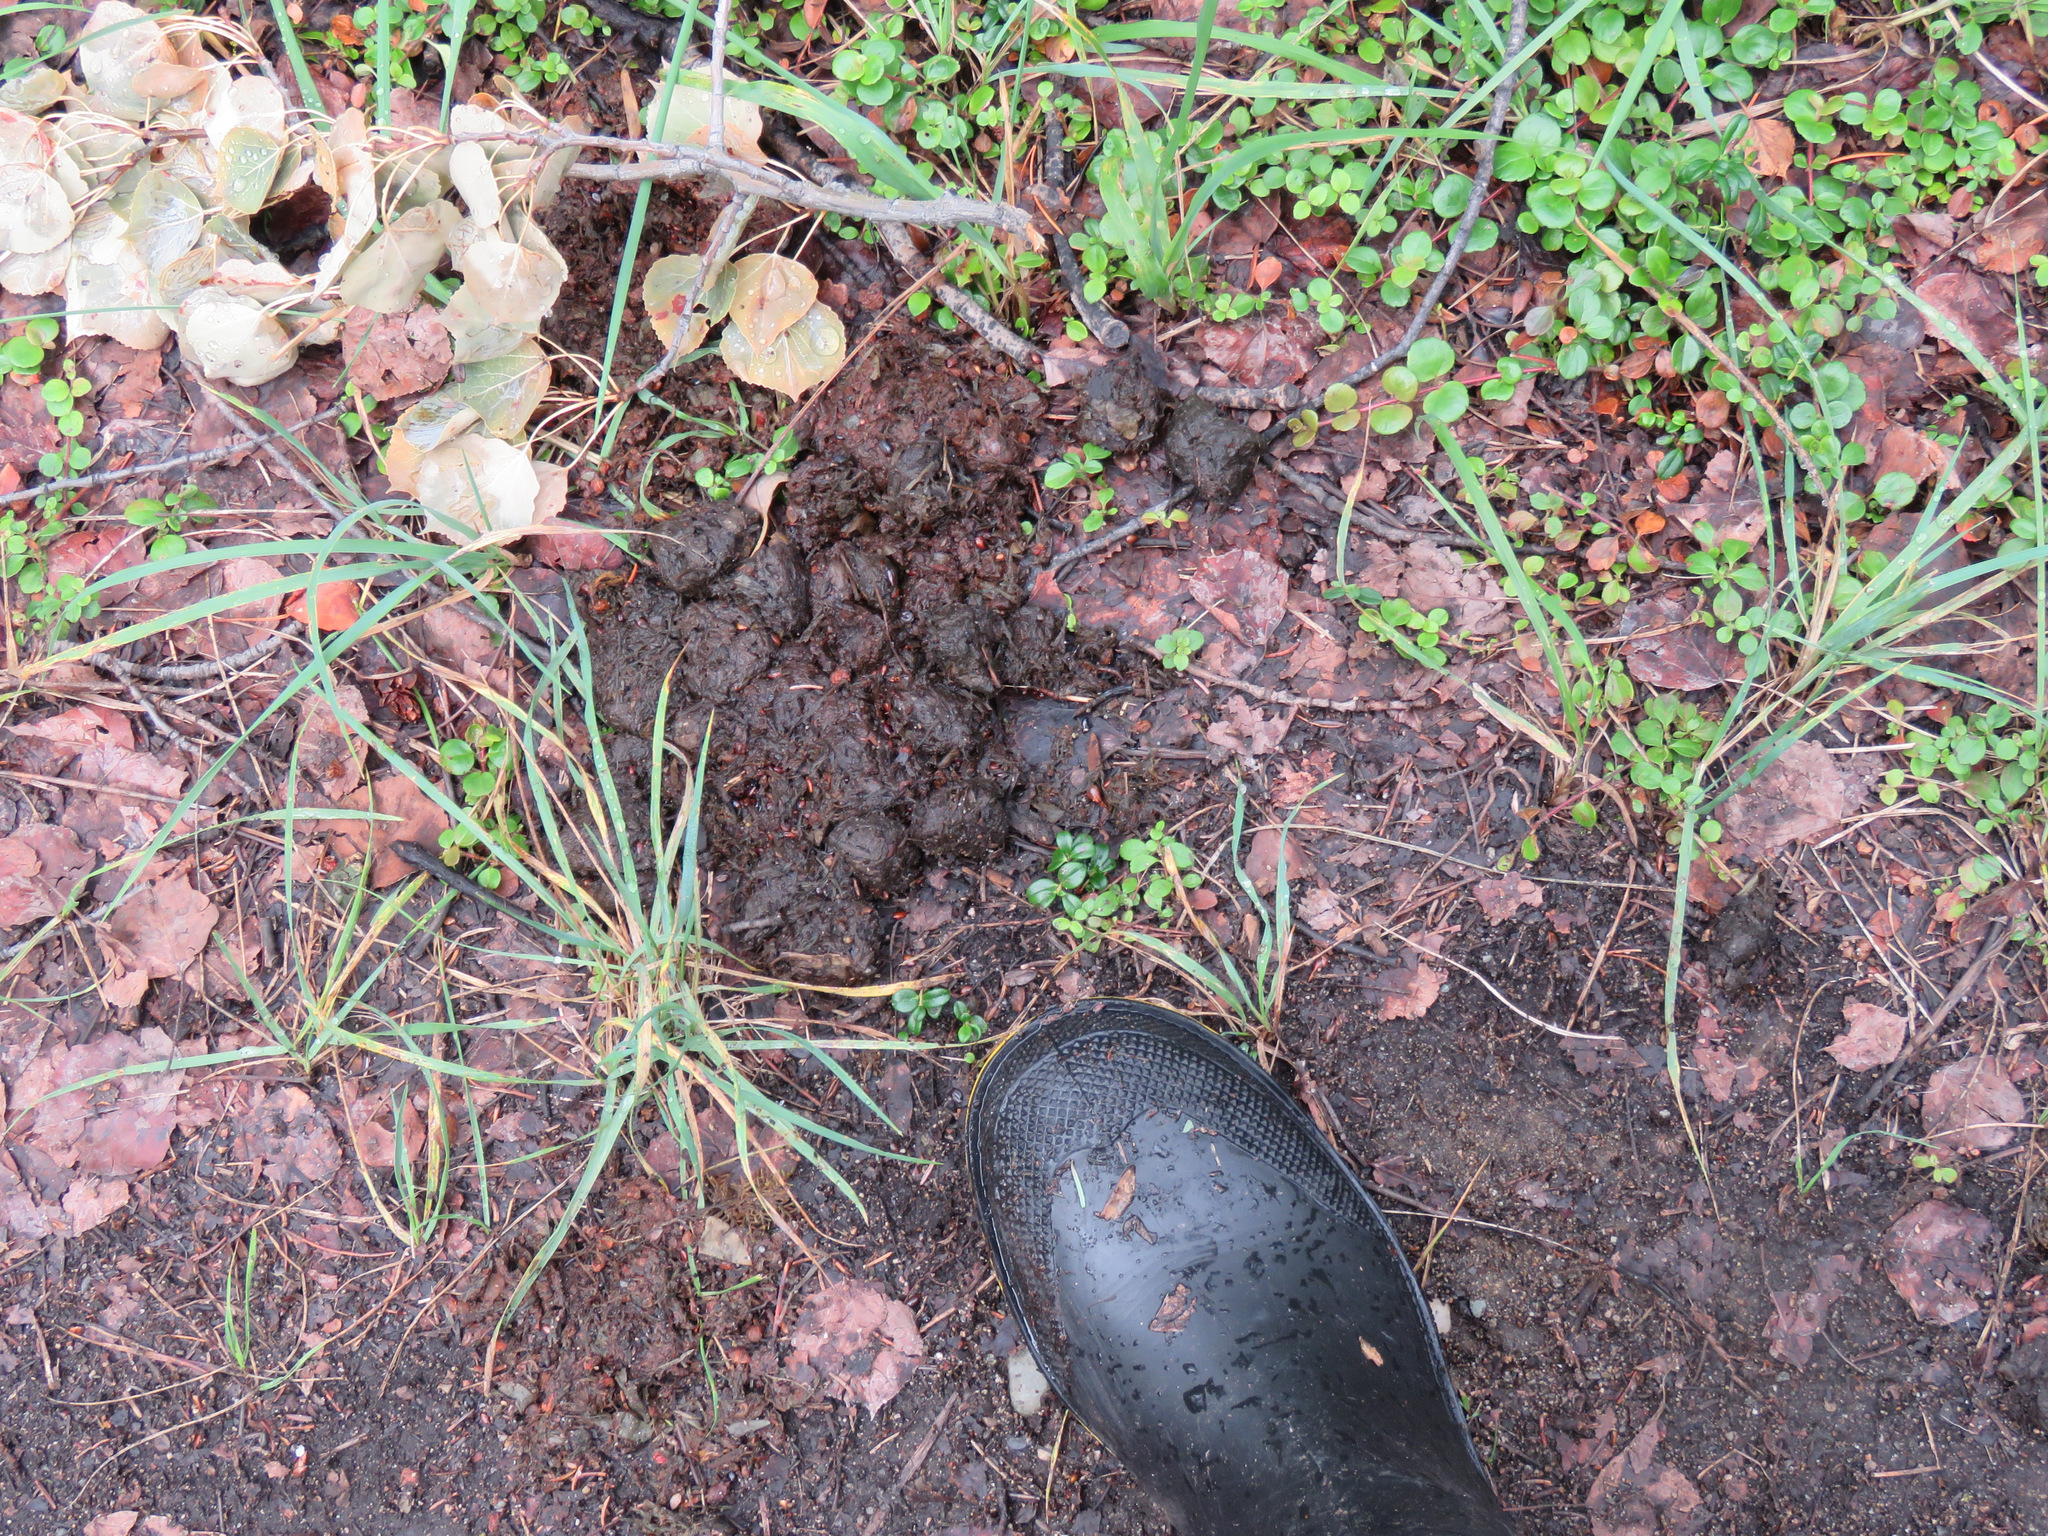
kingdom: Animalia
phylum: Chordata
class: Mammalia
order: Carnivora
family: Ursidae
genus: Ursus
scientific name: Ursus americanus
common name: American black bear
